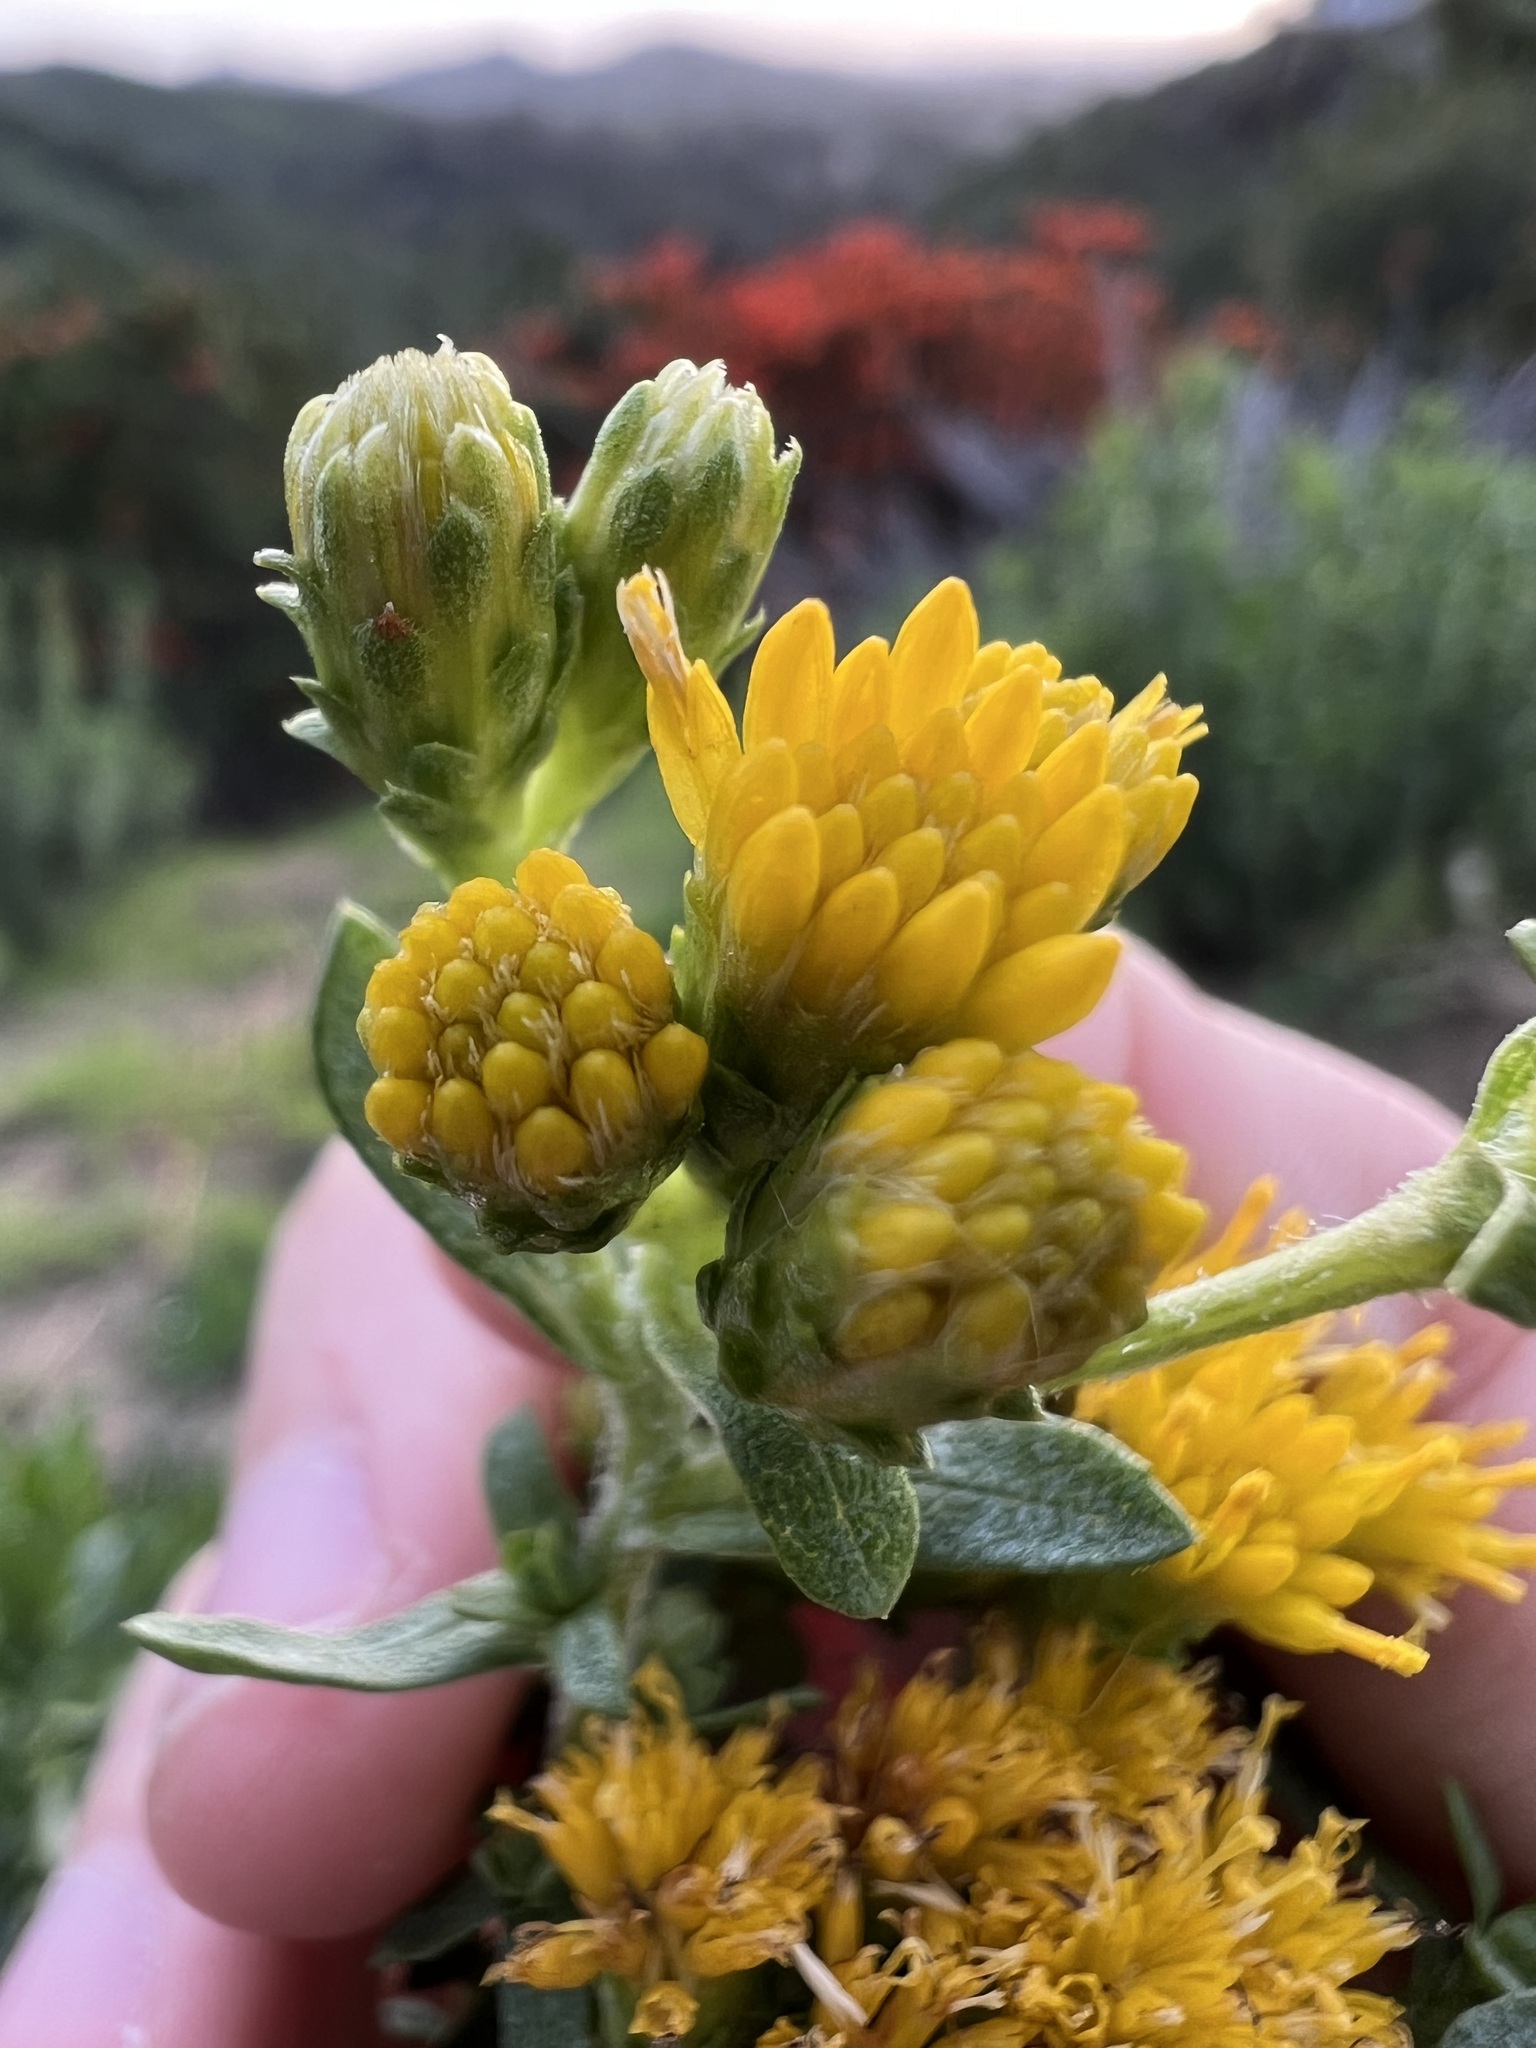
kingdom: Plantae
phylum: Tracheophyta
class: Magnoliopsida
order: Asterales
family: Asteraceae
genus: Isocoma
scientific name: Isocoma menziesii
